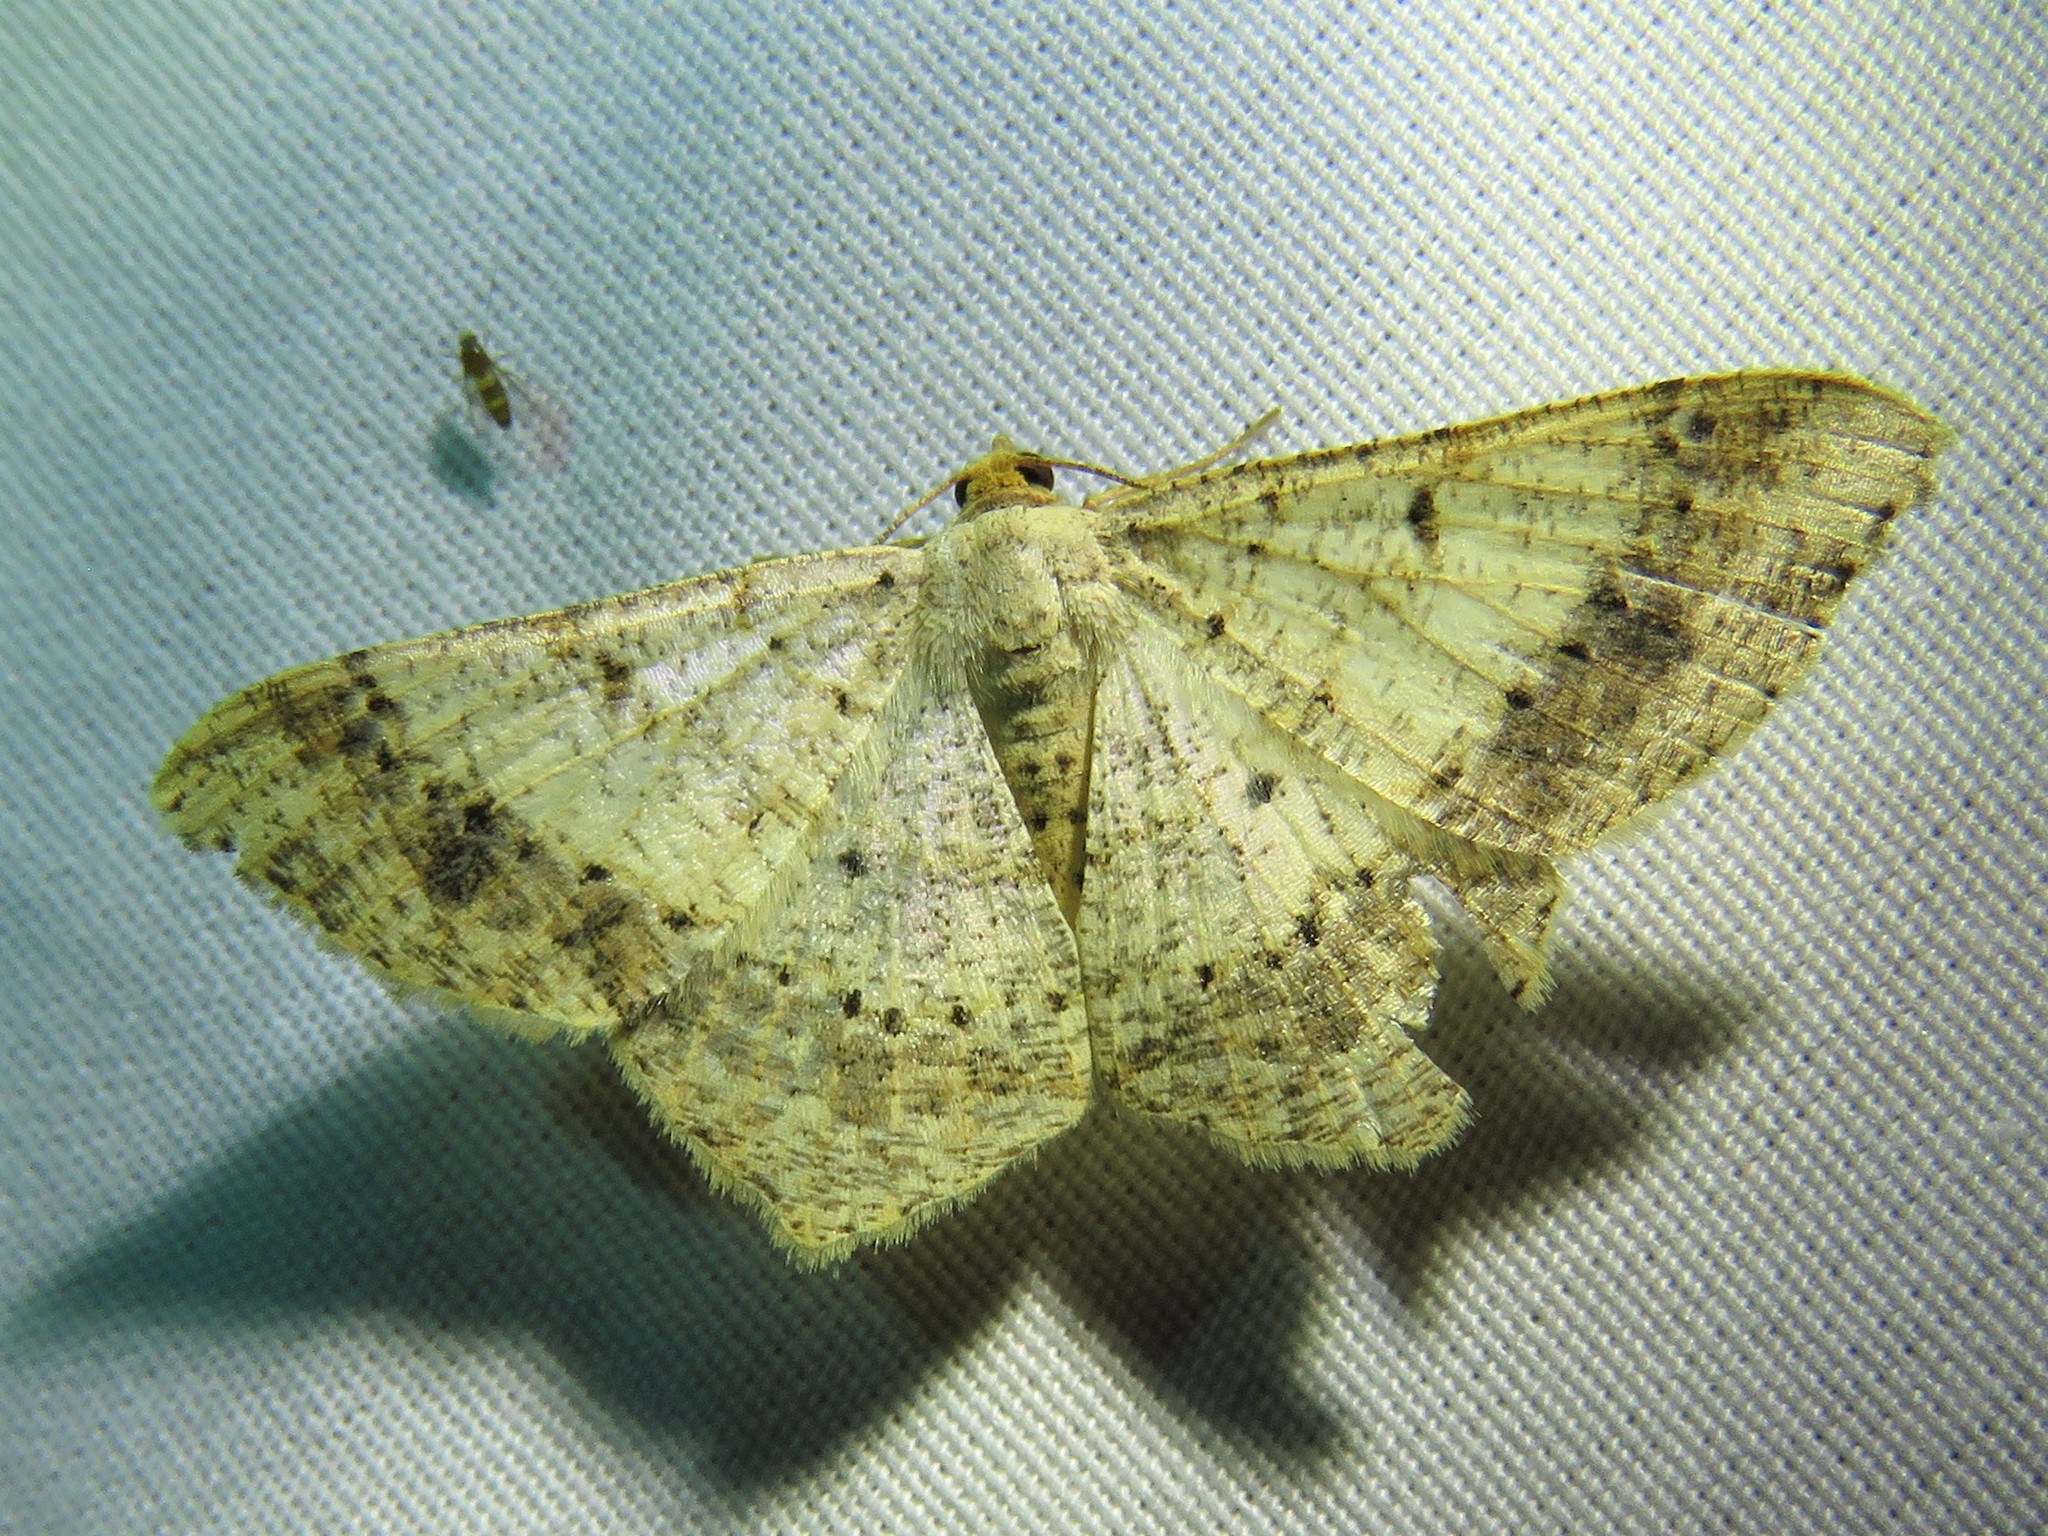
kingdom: Animalia
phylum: Arthropoda
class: Insecta
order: Lepidoptera
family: Geometridae
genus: Macaria
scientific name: Macaria abydata
